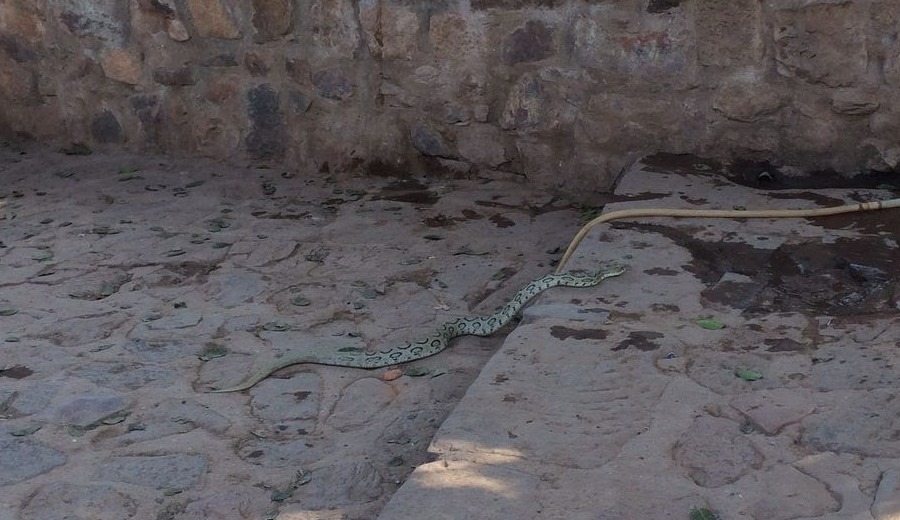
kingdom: Animalia
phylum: Chordata
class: Squamata
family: Viperidae
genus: Daboia
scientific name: Daboia russelii
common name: Western russel’s viper
